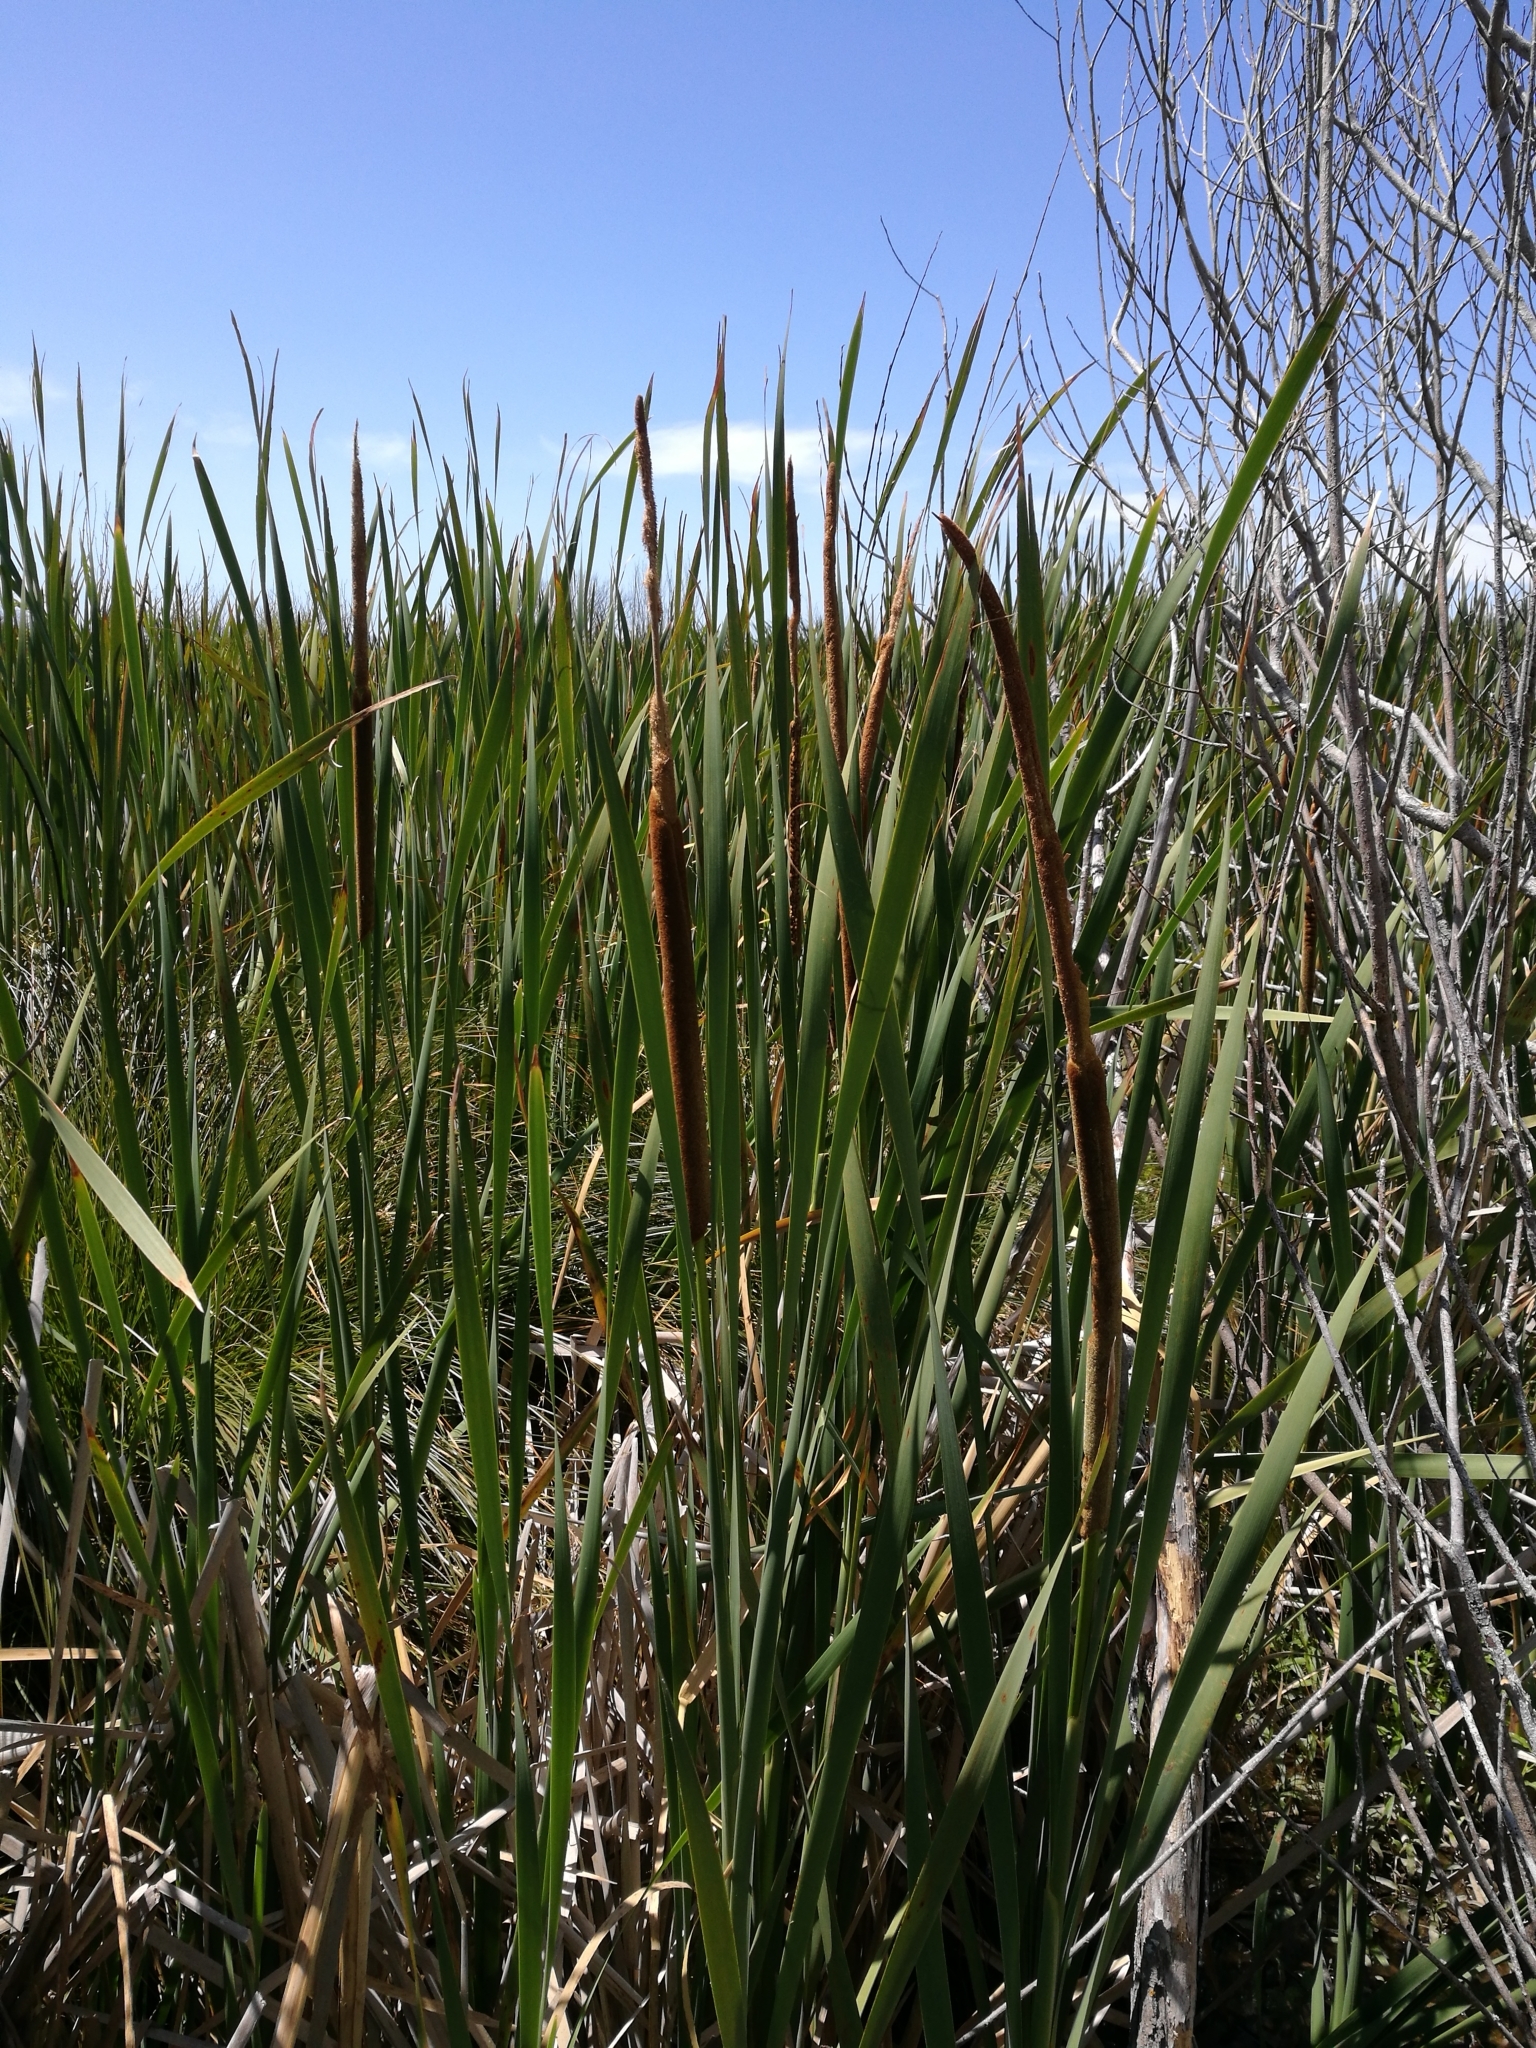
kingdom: Plantae
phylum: Tracheophyta
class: Liliopsida
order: Poales
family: Typhaceae
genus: Typha
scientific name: Typha orientalis
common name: Bullrush
